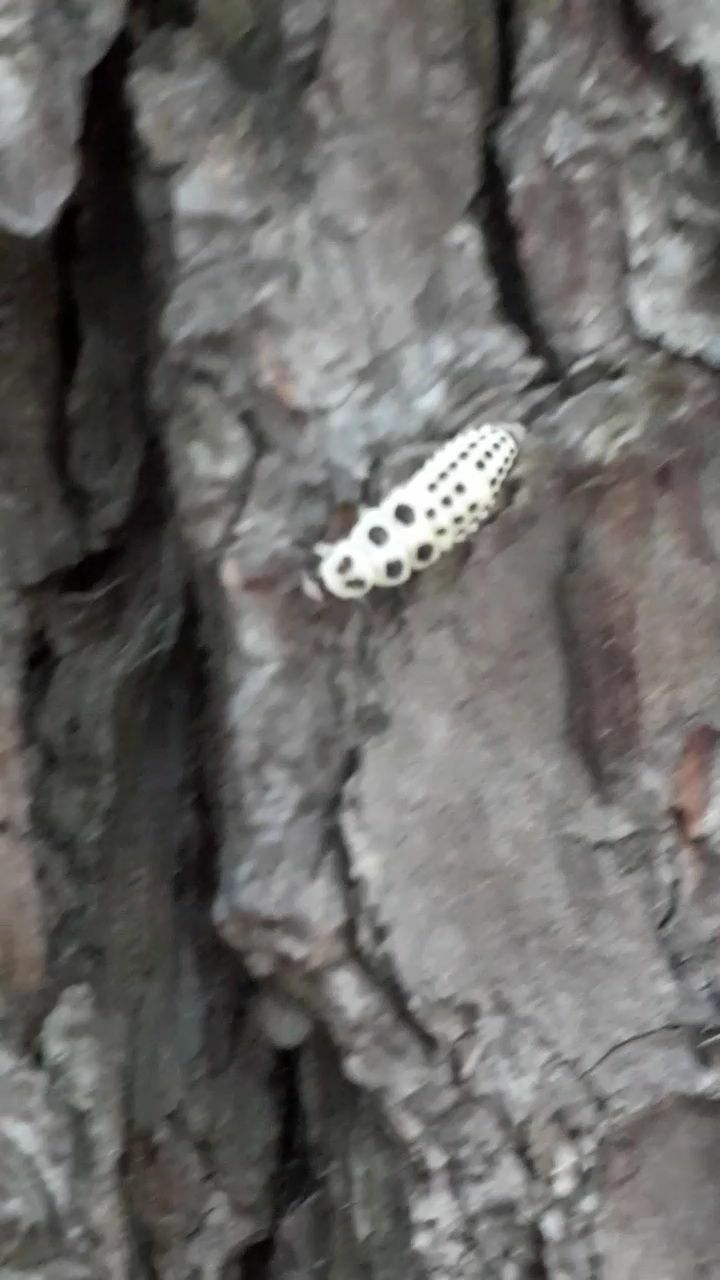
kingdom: Animalia
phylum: Arthropoda
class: Insecta
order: Coleoptera
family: Coccinellidae
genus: Calvia
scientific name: Calvia decemguttata
